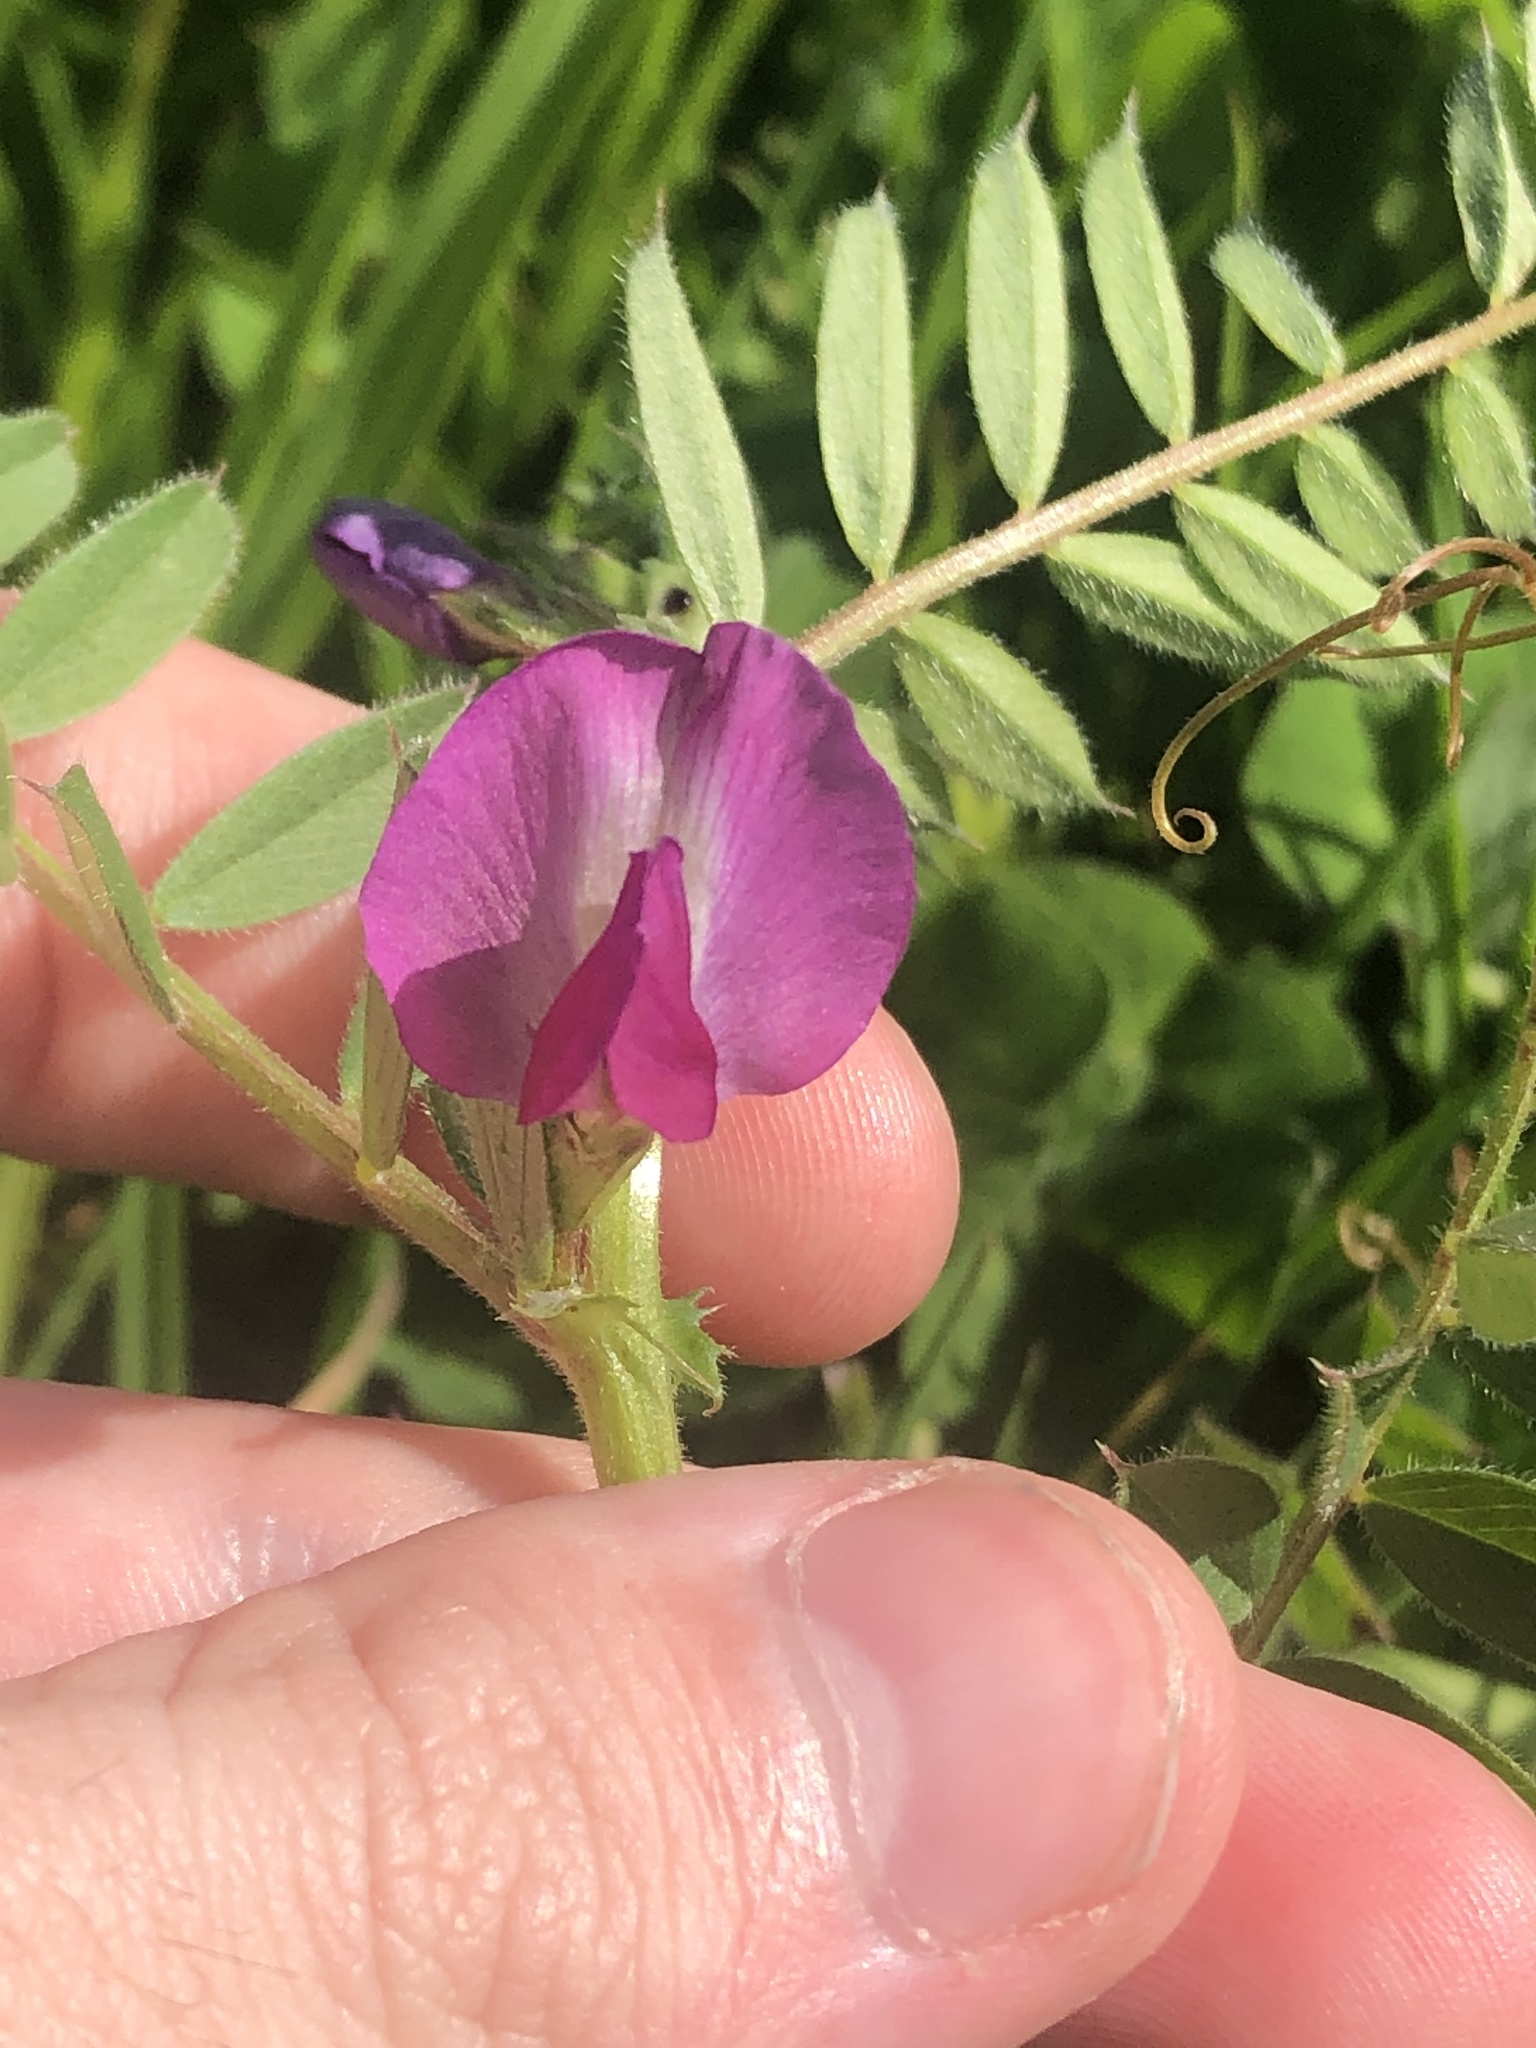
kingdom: Plantae
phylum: Tracheophyta
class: Magnoliopsida
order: Fabales
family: Fabaceae
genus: Vicia
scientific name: Vicia sativa
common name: Garden vetch
